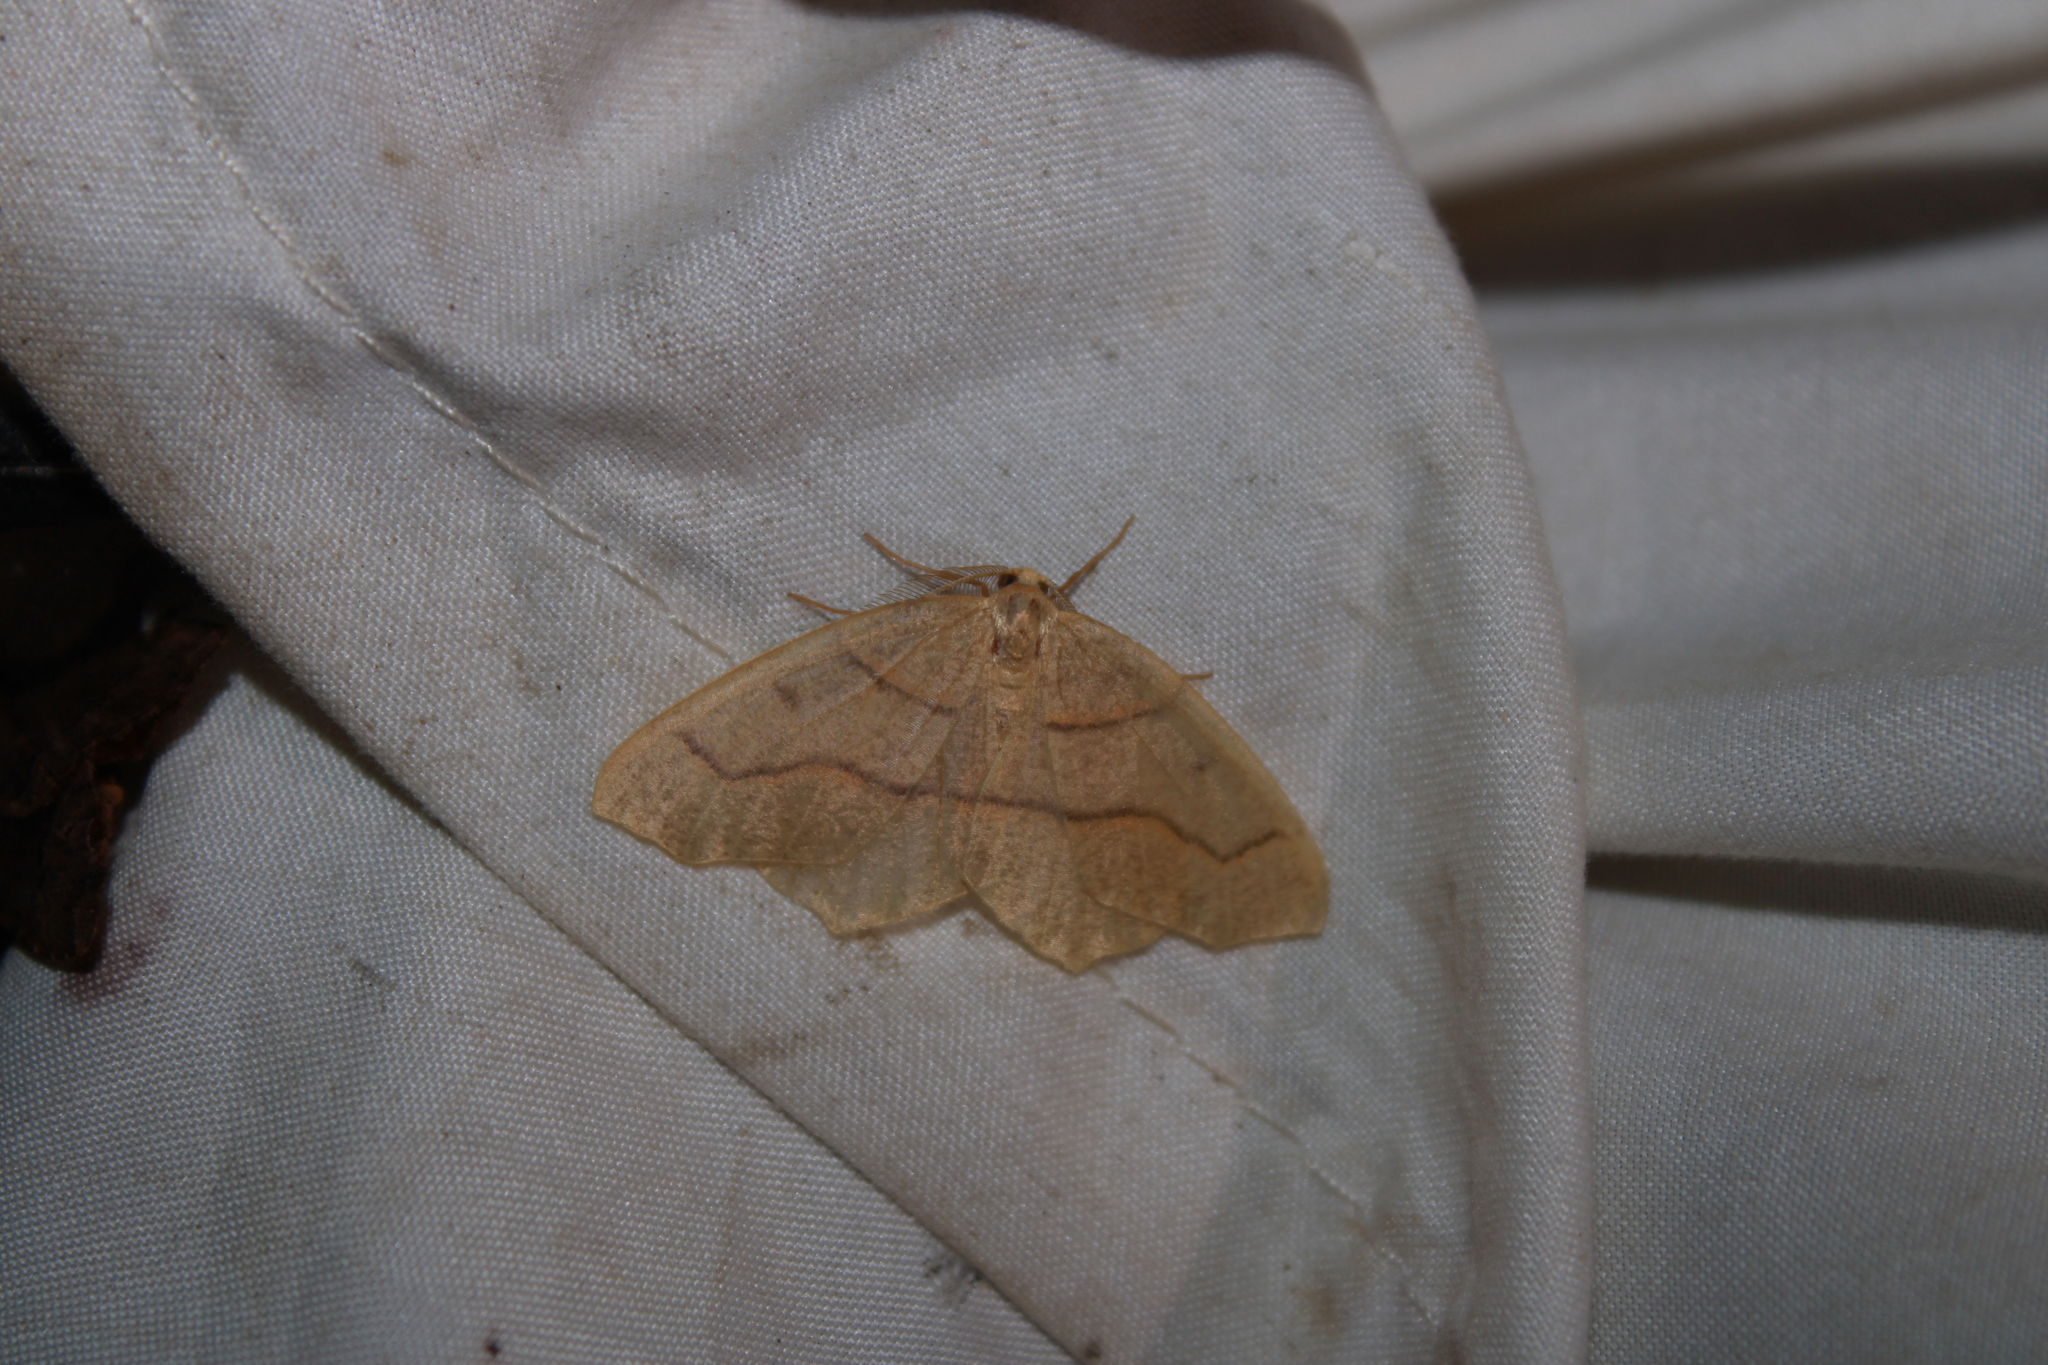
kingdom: Animalia
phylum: Arthropoda
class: Insecta
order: Lepidoptera
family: Geometridae
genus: Lambdina
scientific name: Lambdina fiscellaria
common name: Hemlock looper
